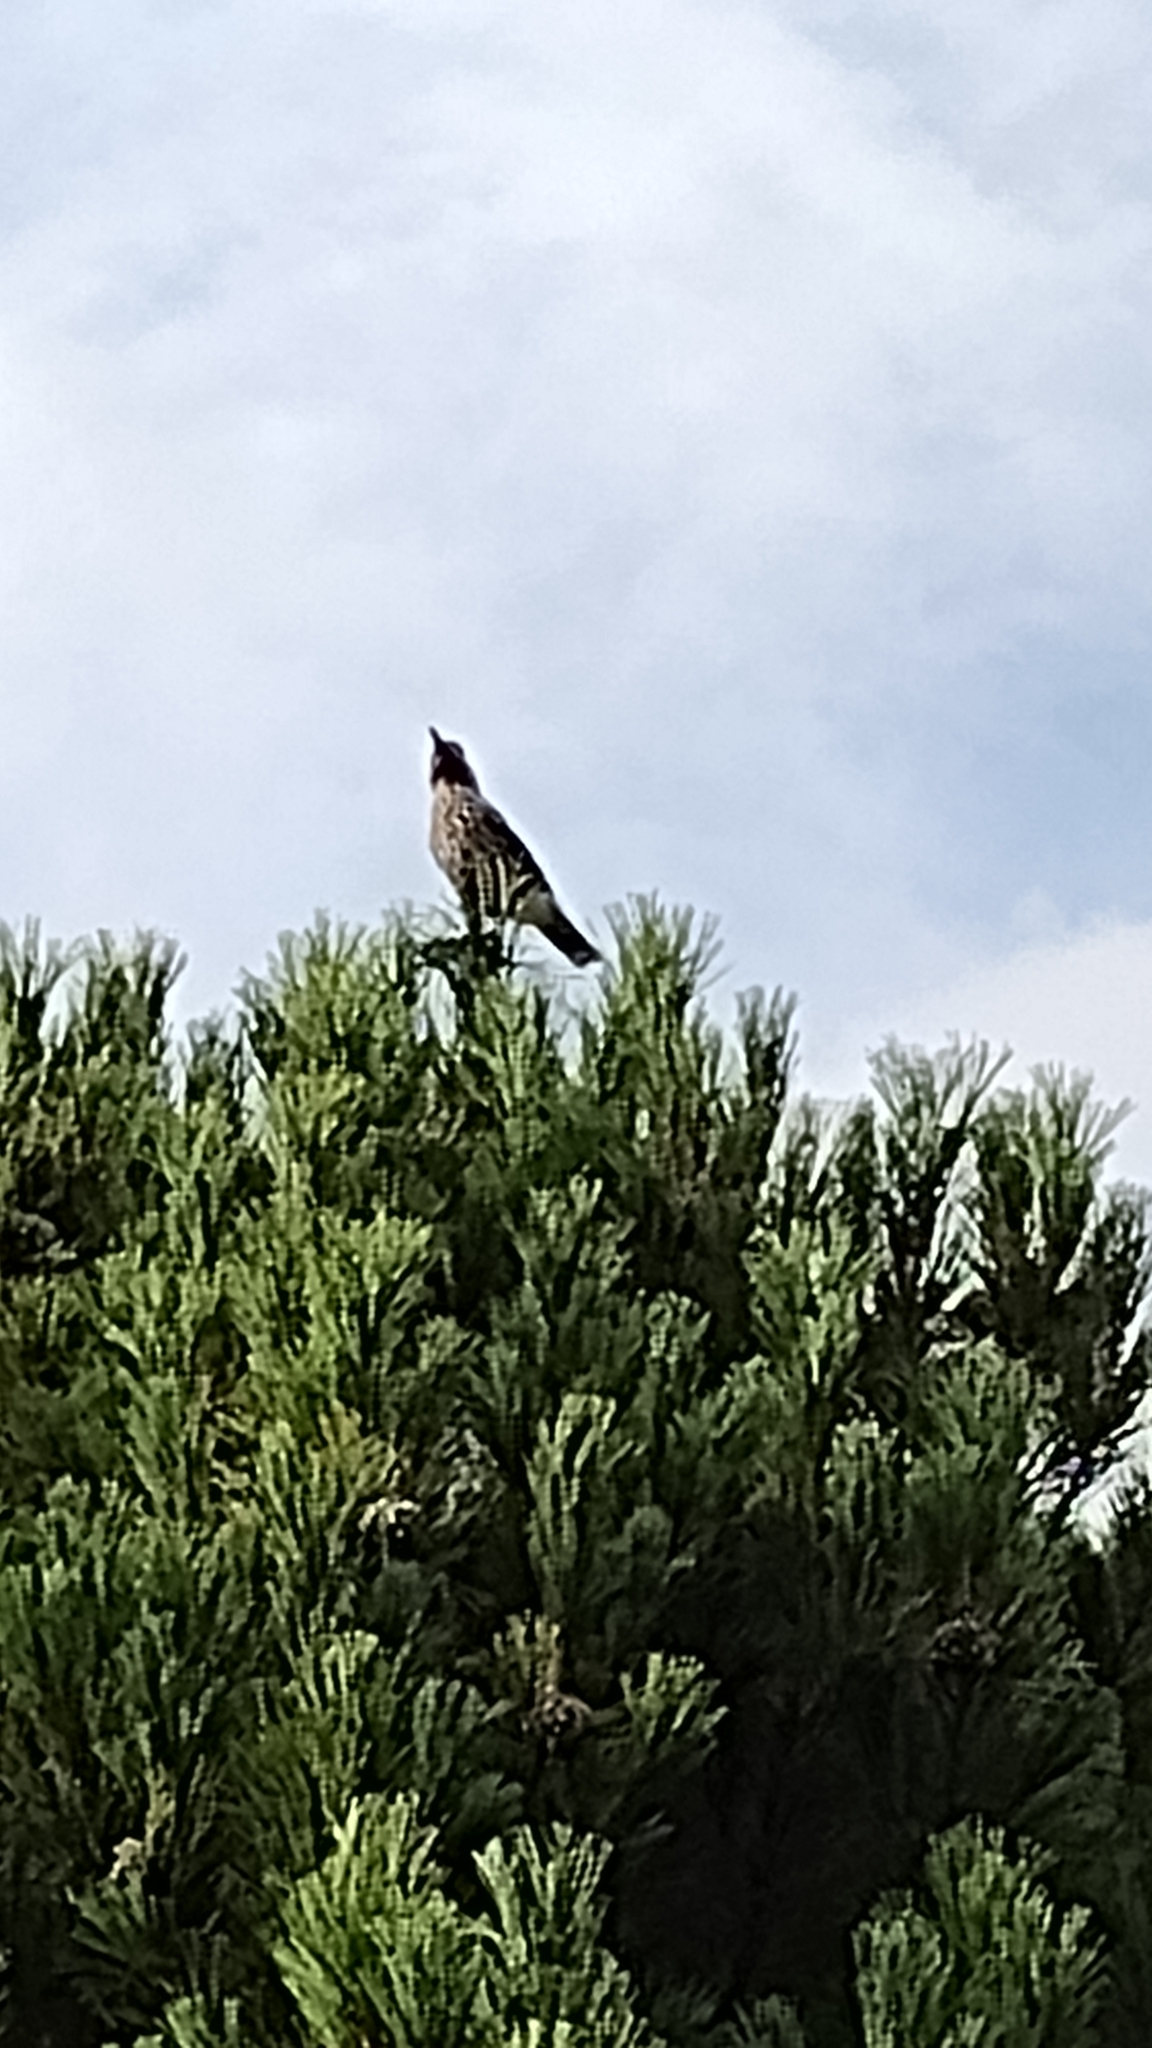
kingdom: Animalia
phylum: Chordata
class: Aves
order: Passeriformes
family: Corvidae
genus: Nucifraga
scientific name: Nucifraga caryocatactes
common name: Spotted nutcracker
